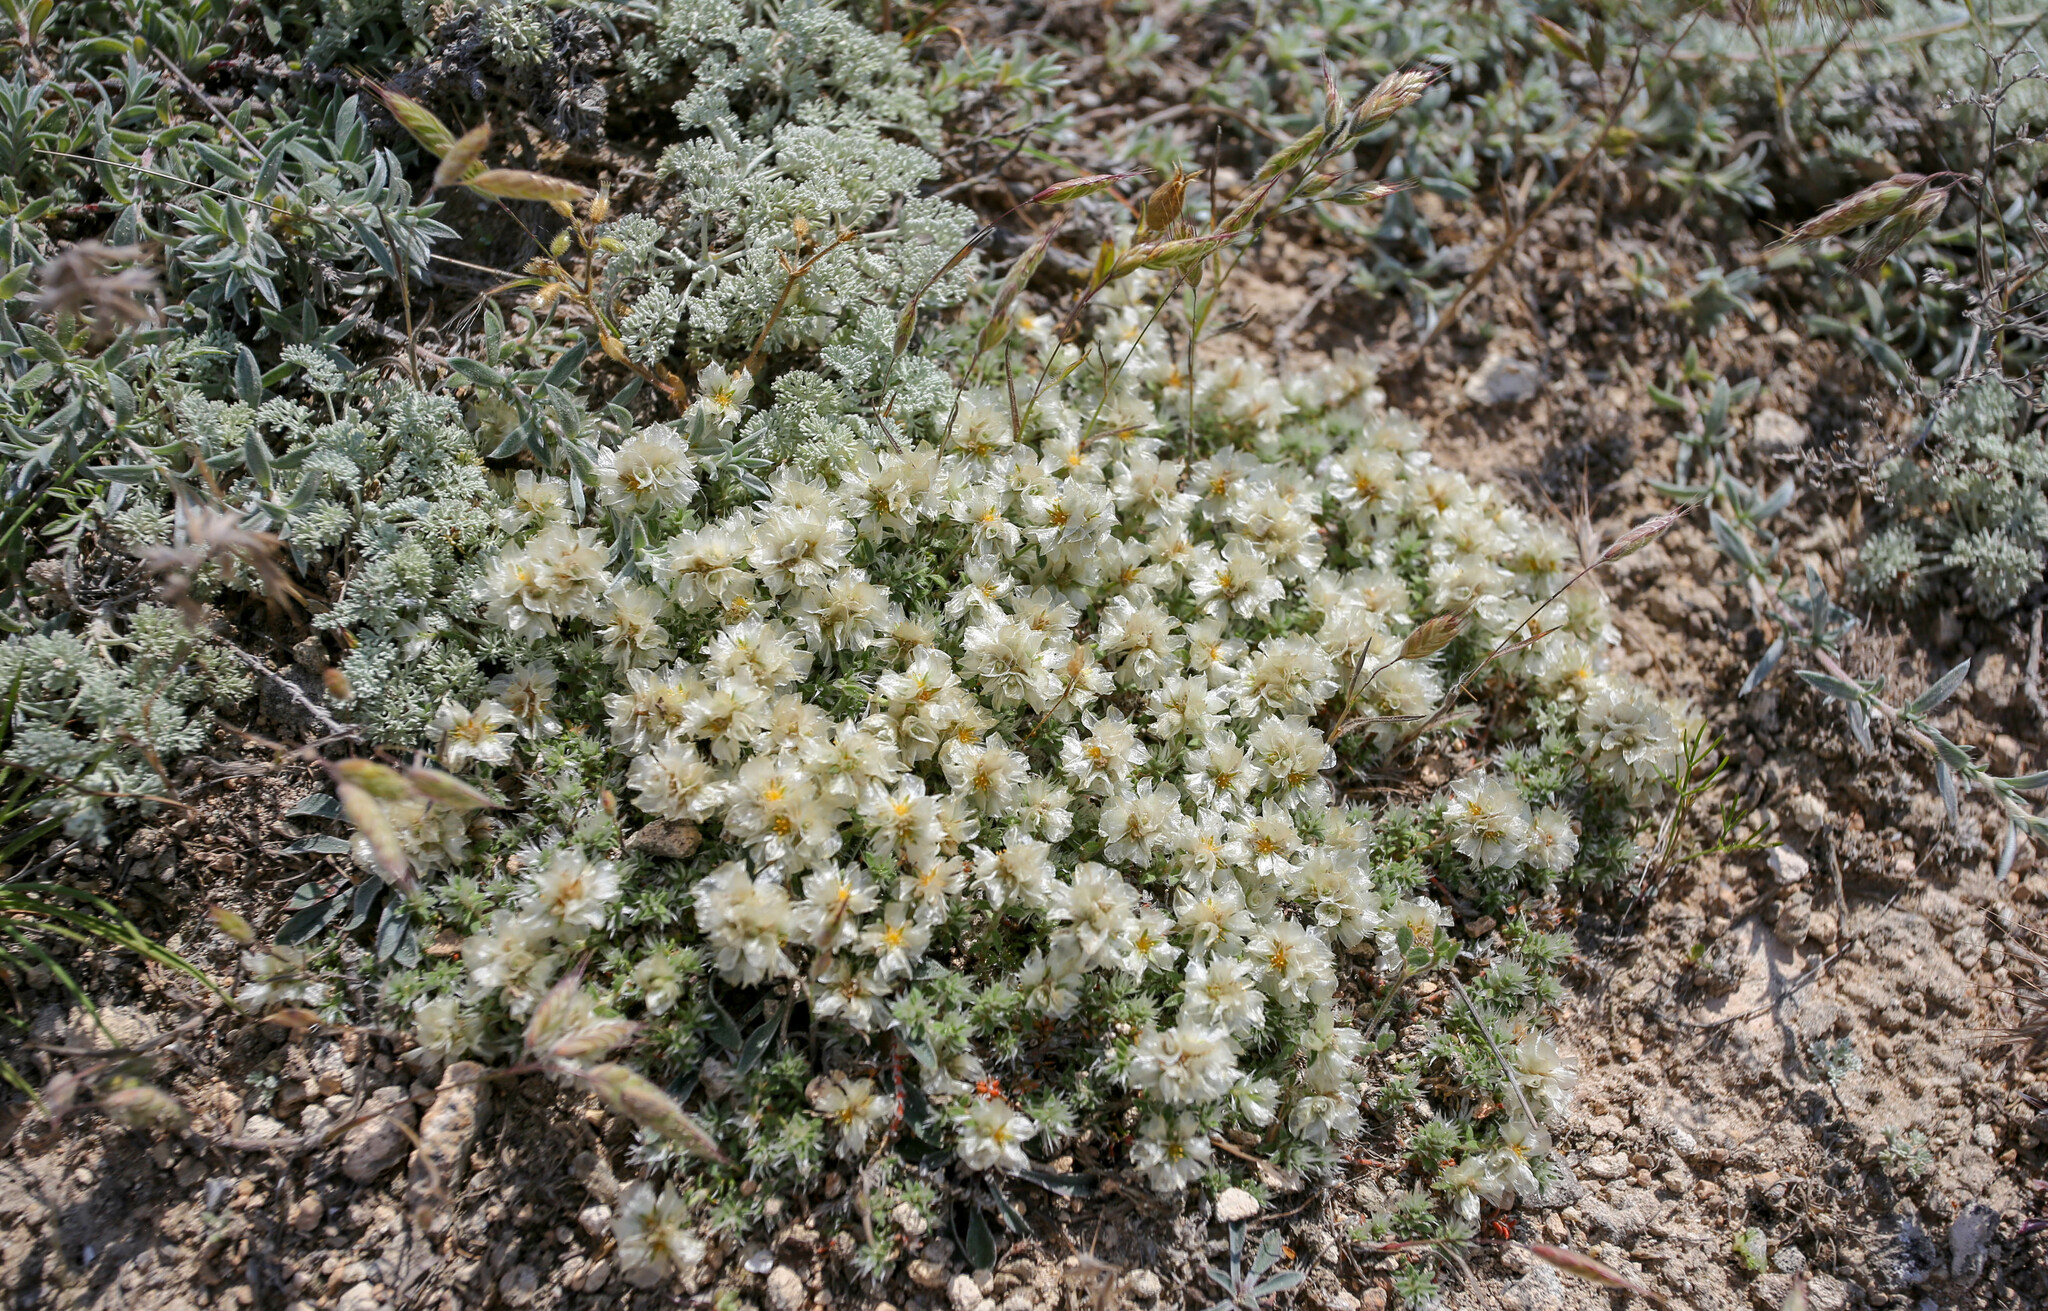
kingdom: Plantae
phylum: Tracheophyta
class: Magnoliopsida
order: Caryophyllales
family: Caryophyllaceae
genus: Paronychia
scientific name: Paronychia cephalotes
